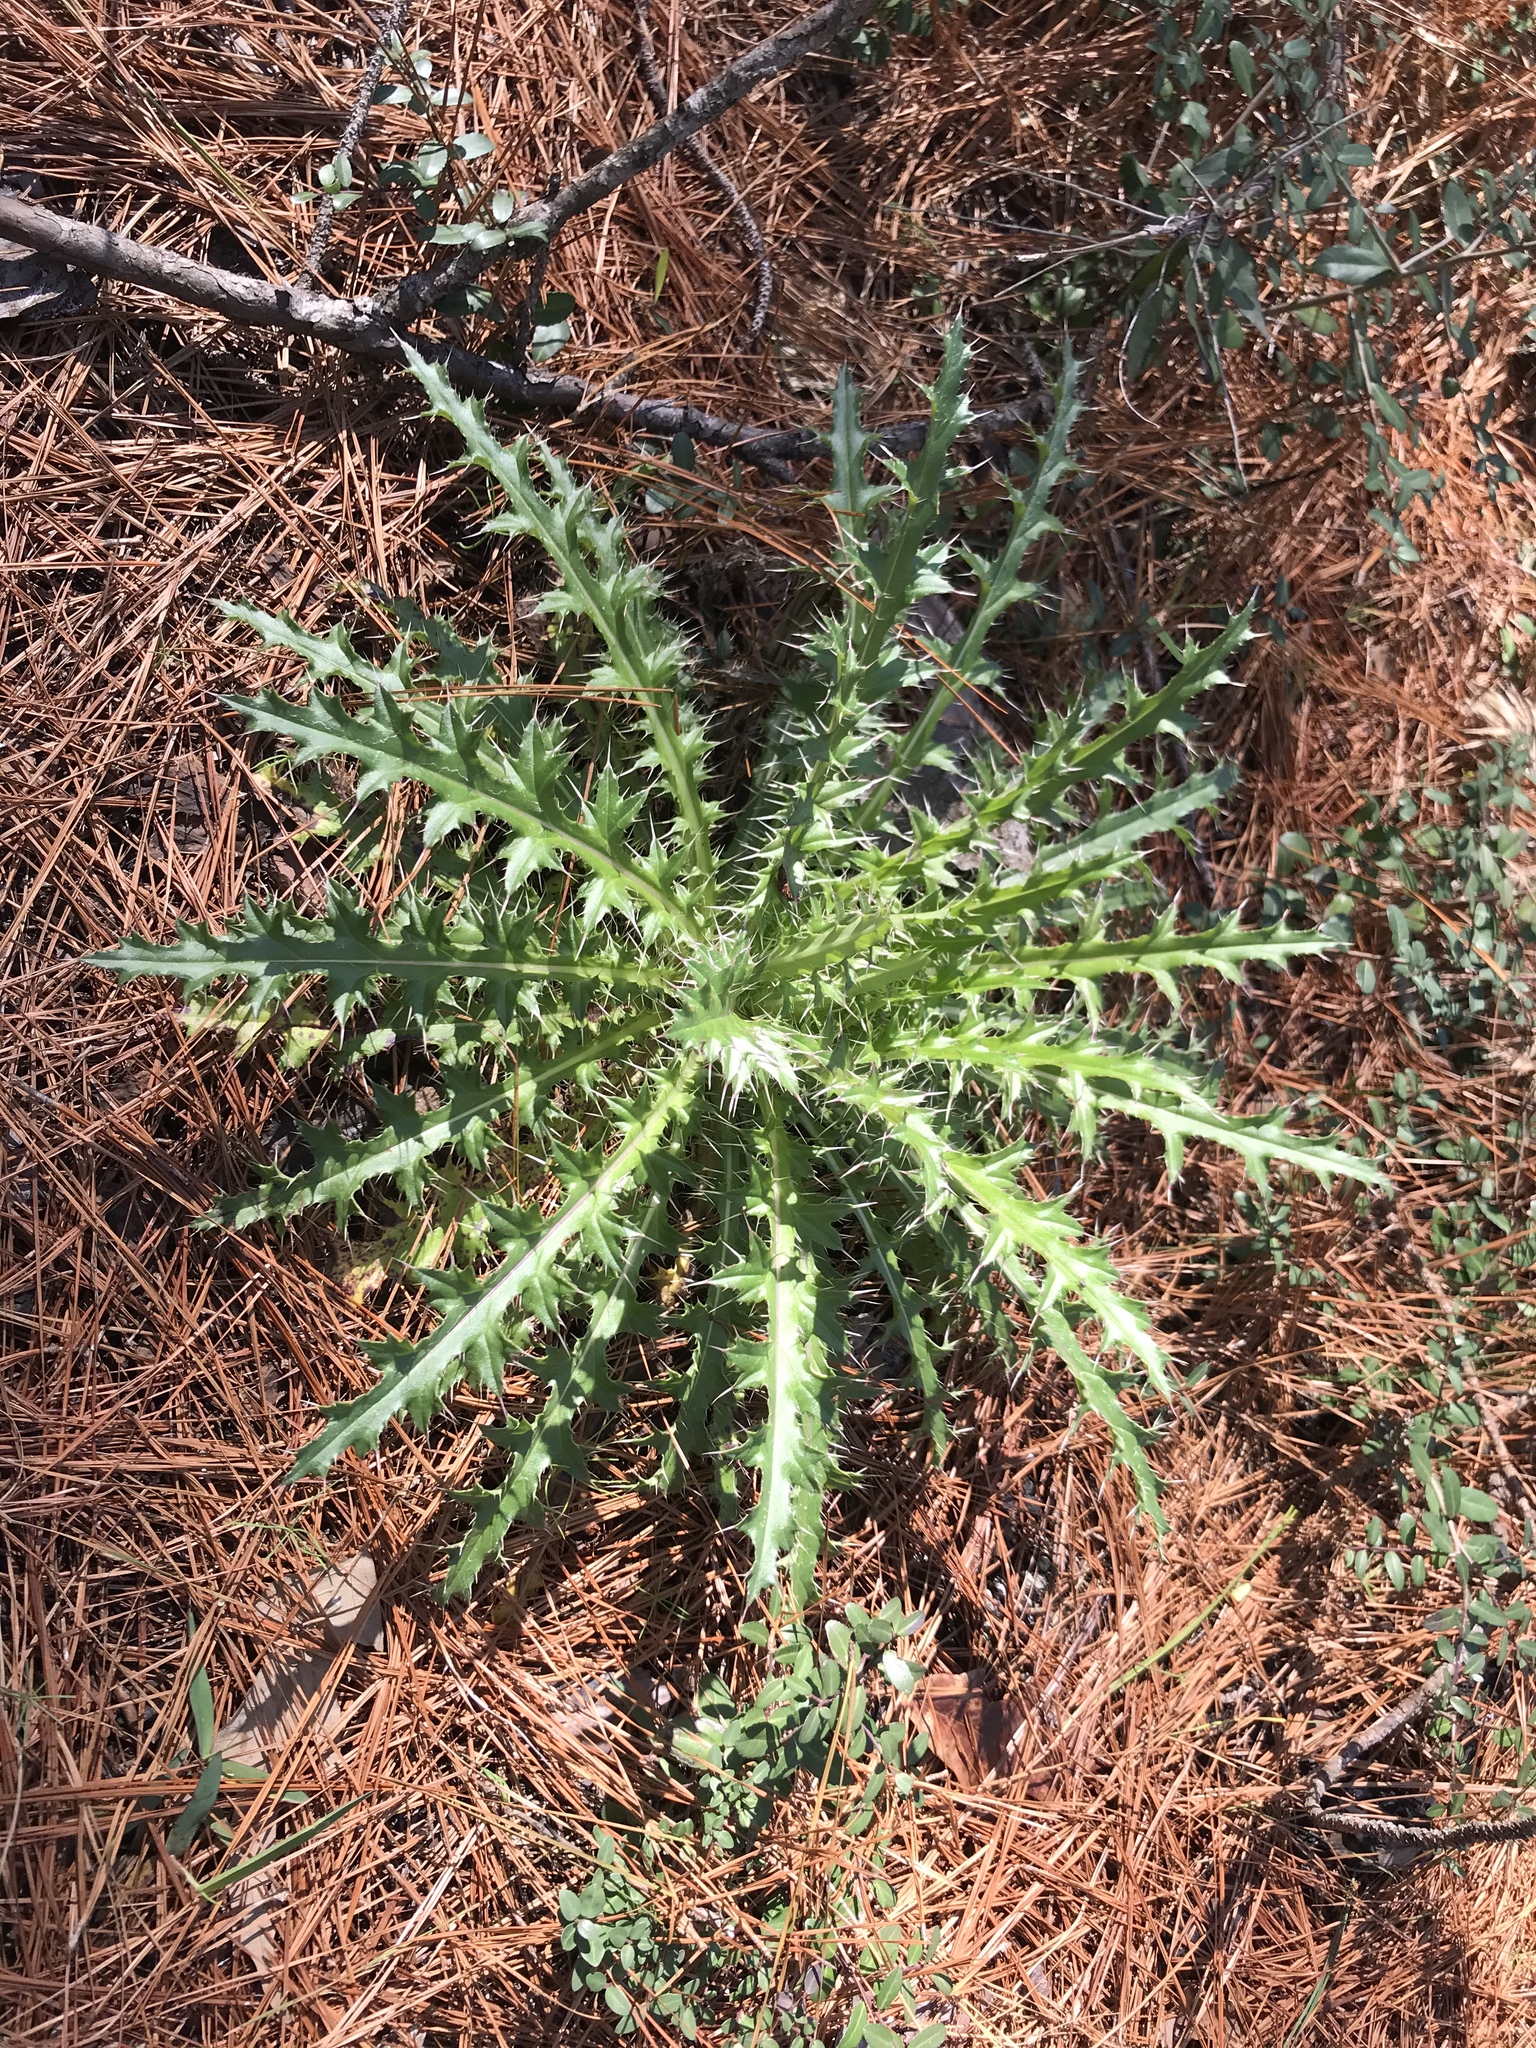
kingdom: Plantae
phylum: Tracheophyta
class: Magnoliopsida
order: Asterales
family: Asteraceae
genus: Cirsium
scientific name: Cirsium horridulum
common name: Bristly thistle
